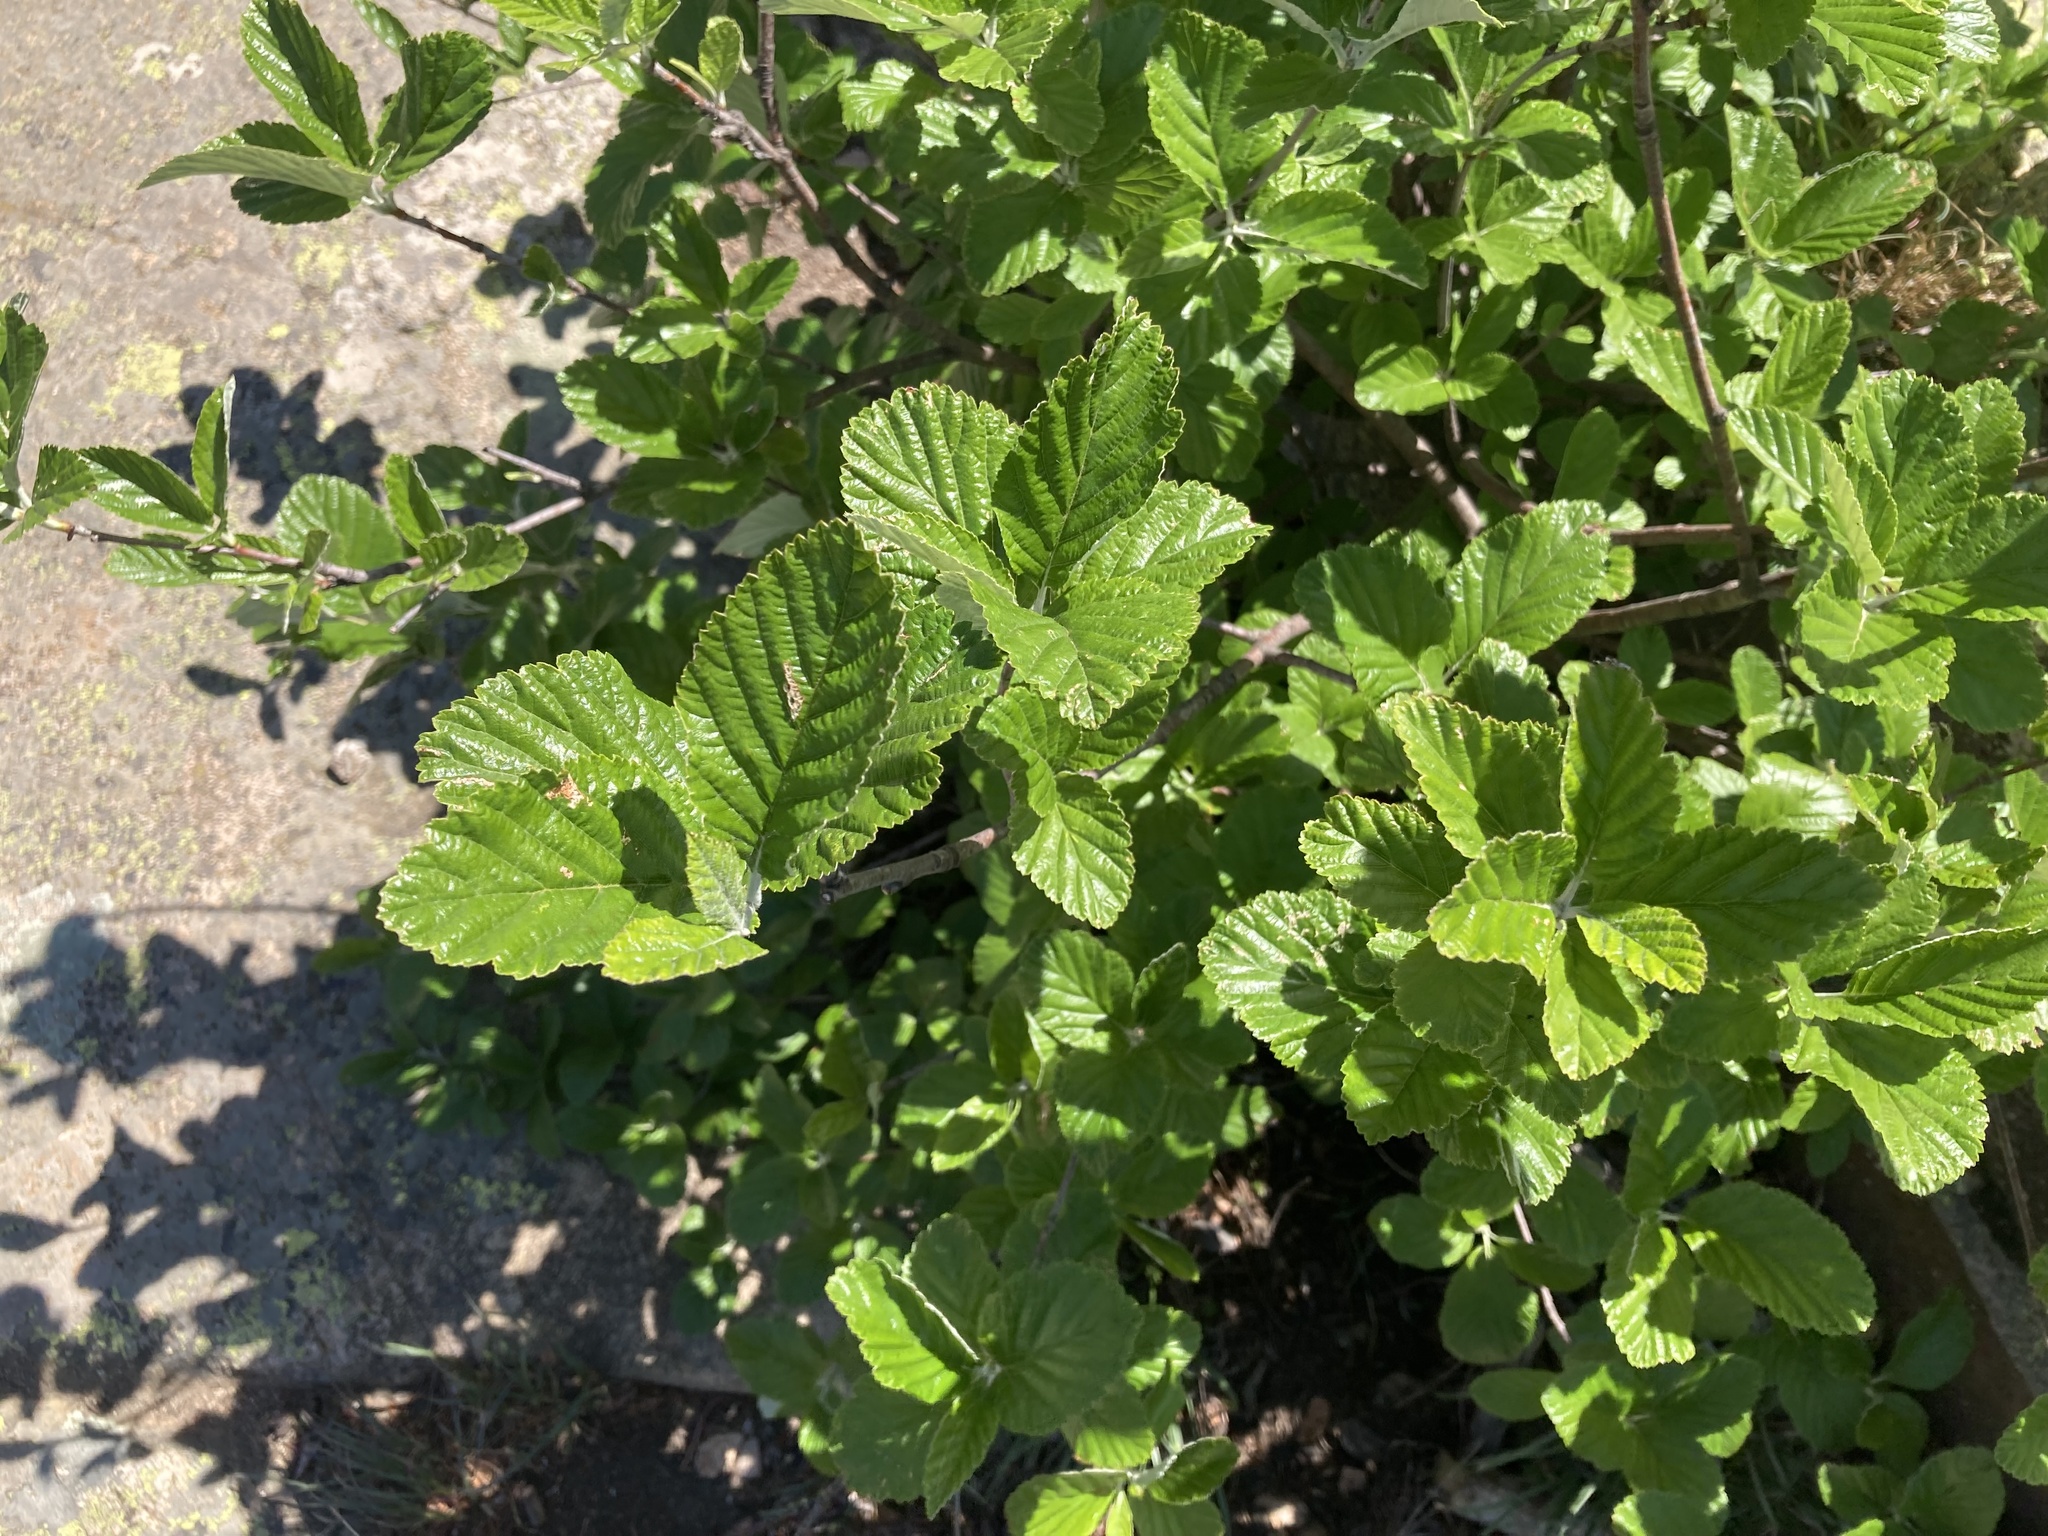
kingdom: Plantae
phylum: Tracheophyta
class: Magnoliopsida
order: Rosales
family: Rosaceae
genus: Aria
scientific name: Aria edulis
